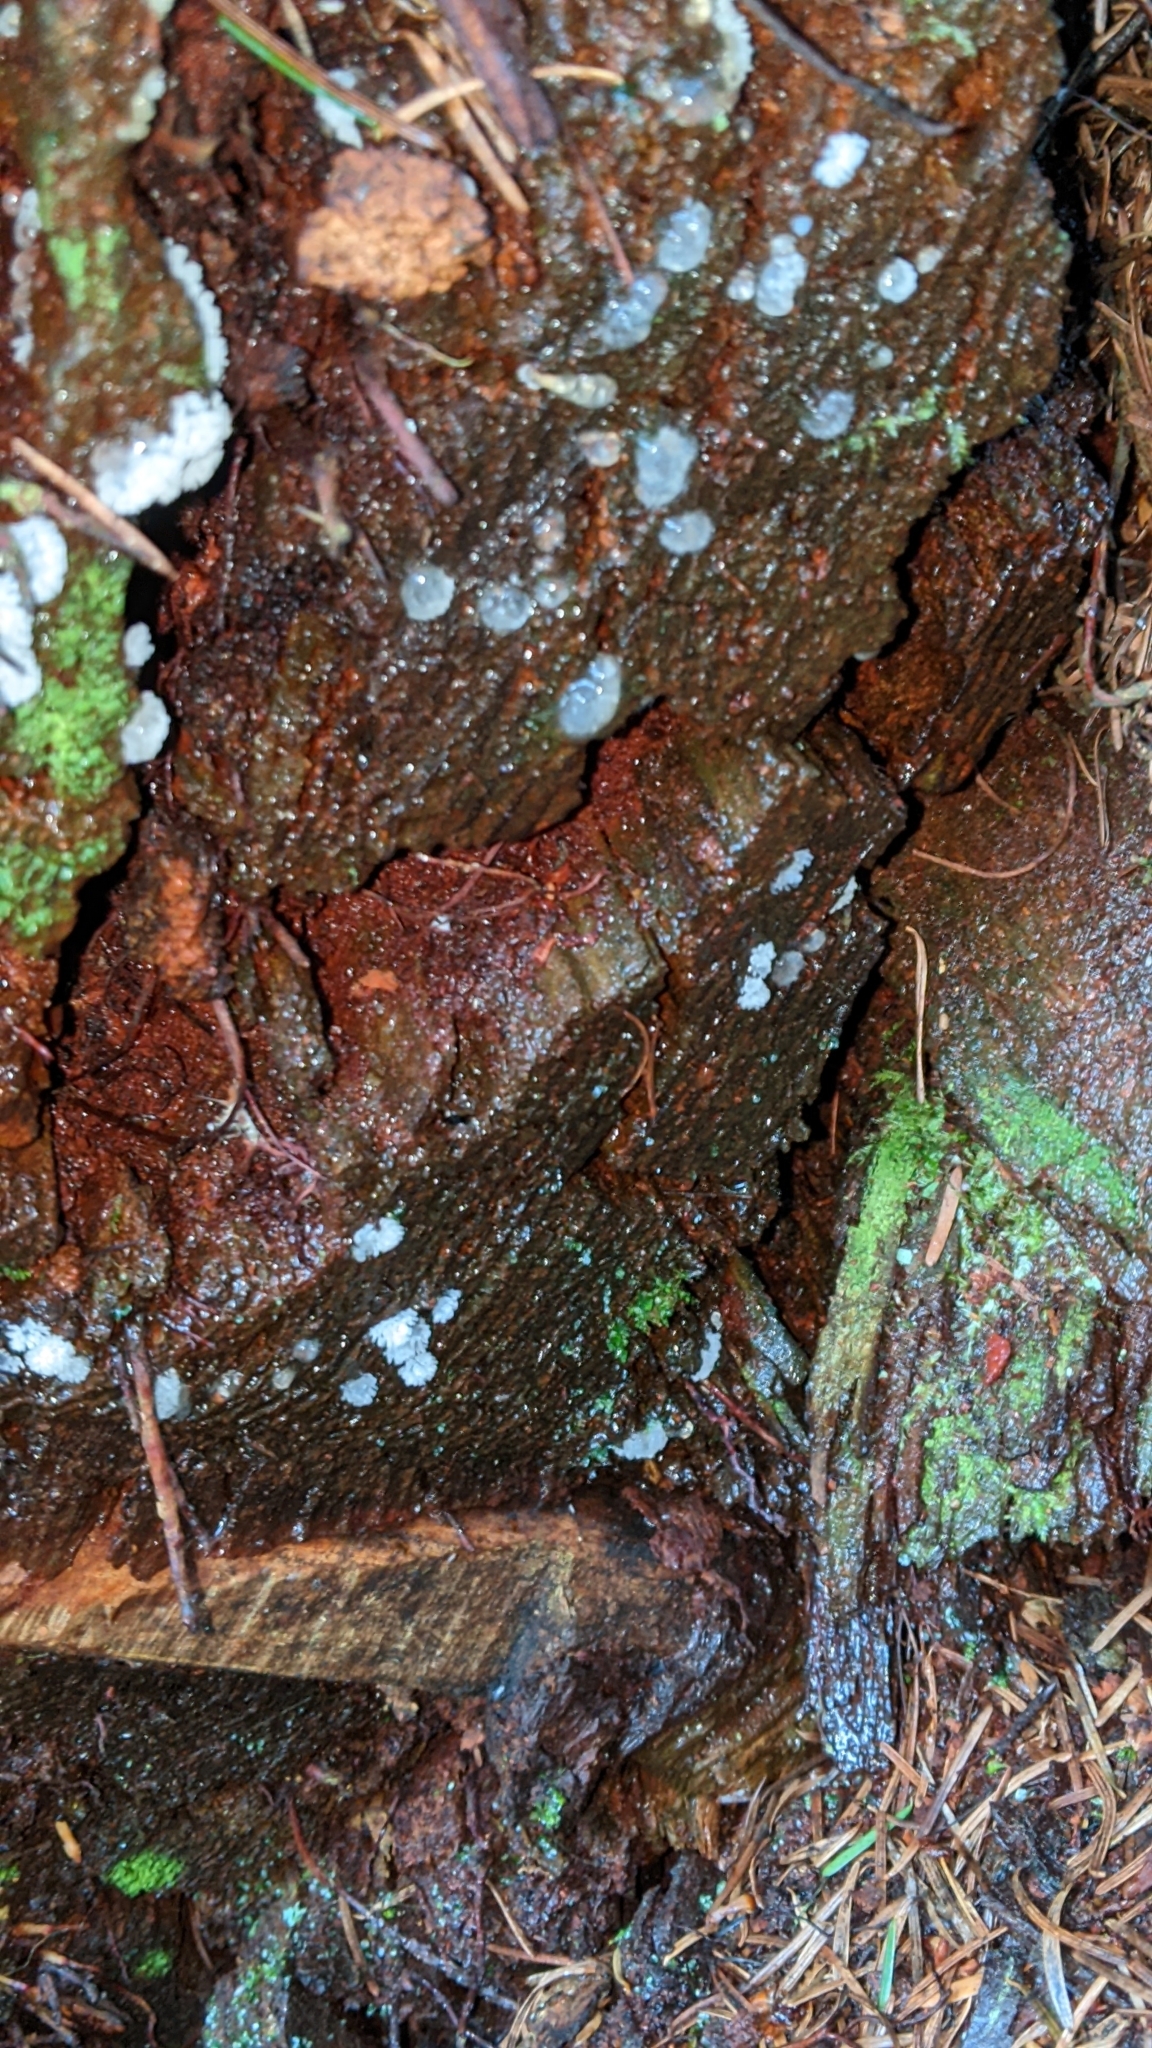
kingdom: Protozoa
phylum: Mycetozoa
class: Protosteliomycetes
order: Ceratiomyxales
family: Ceratiomyxaceae
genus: Ceratiomyxa
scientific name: Ceratiomyxa fruticulosa
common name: Honeycomb coral slime mold
